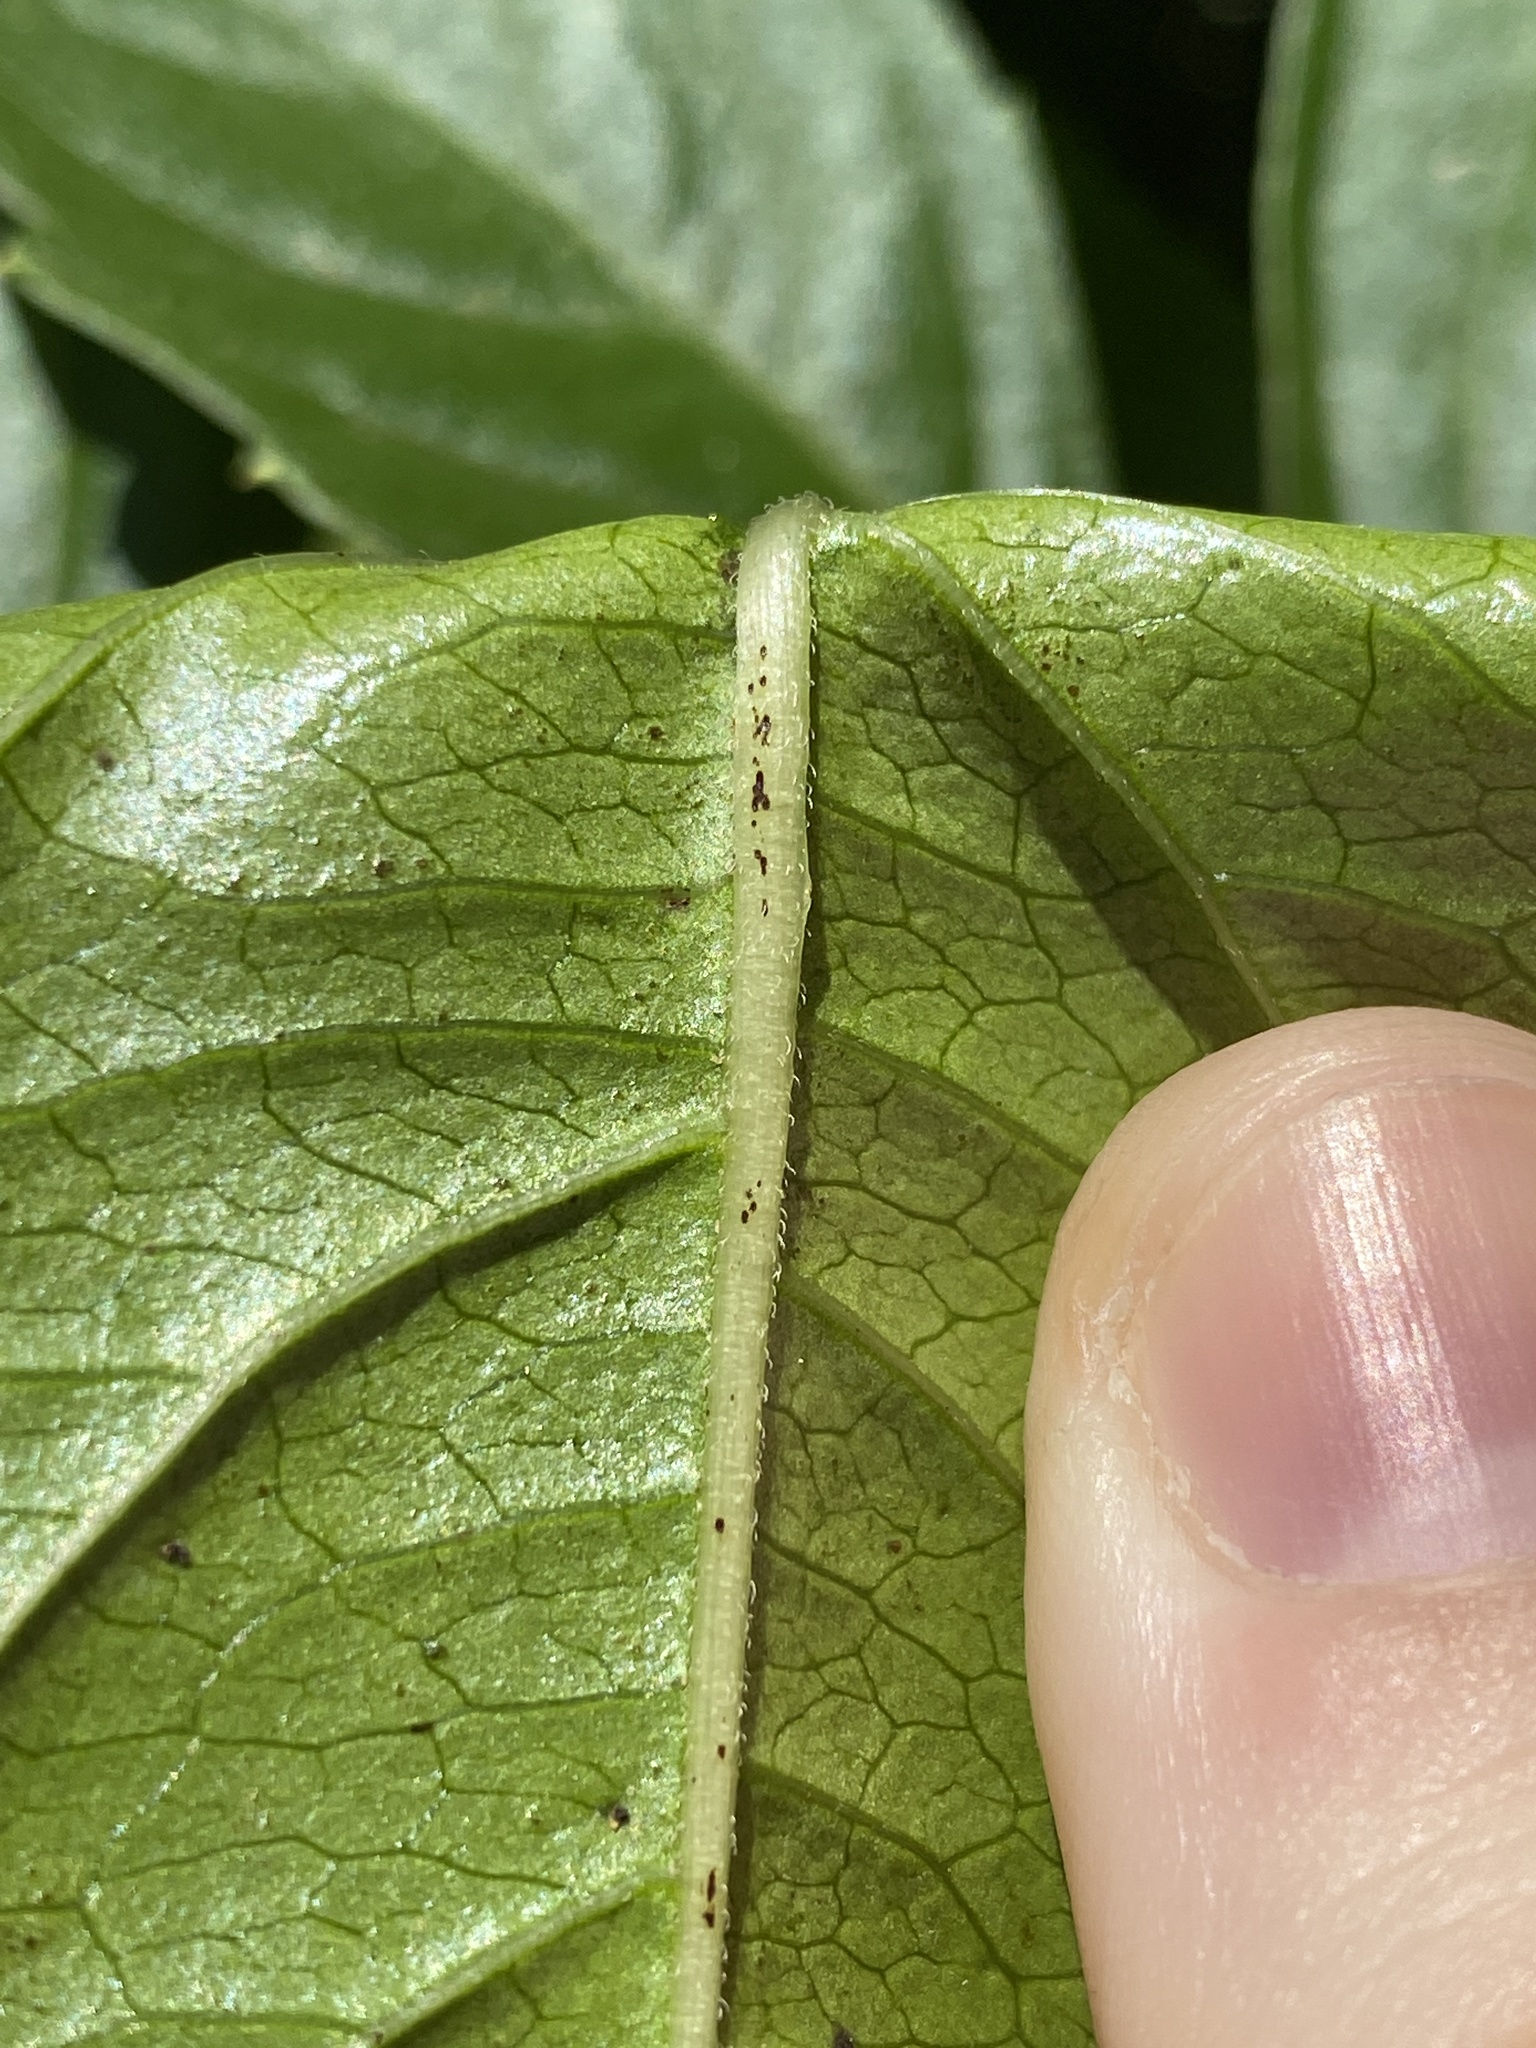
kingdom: Plantae
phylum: Tracheophyta
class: Magnoliopsida
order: Vitales
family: Vitaceae
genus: Causonis
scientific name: Causonis japonica
